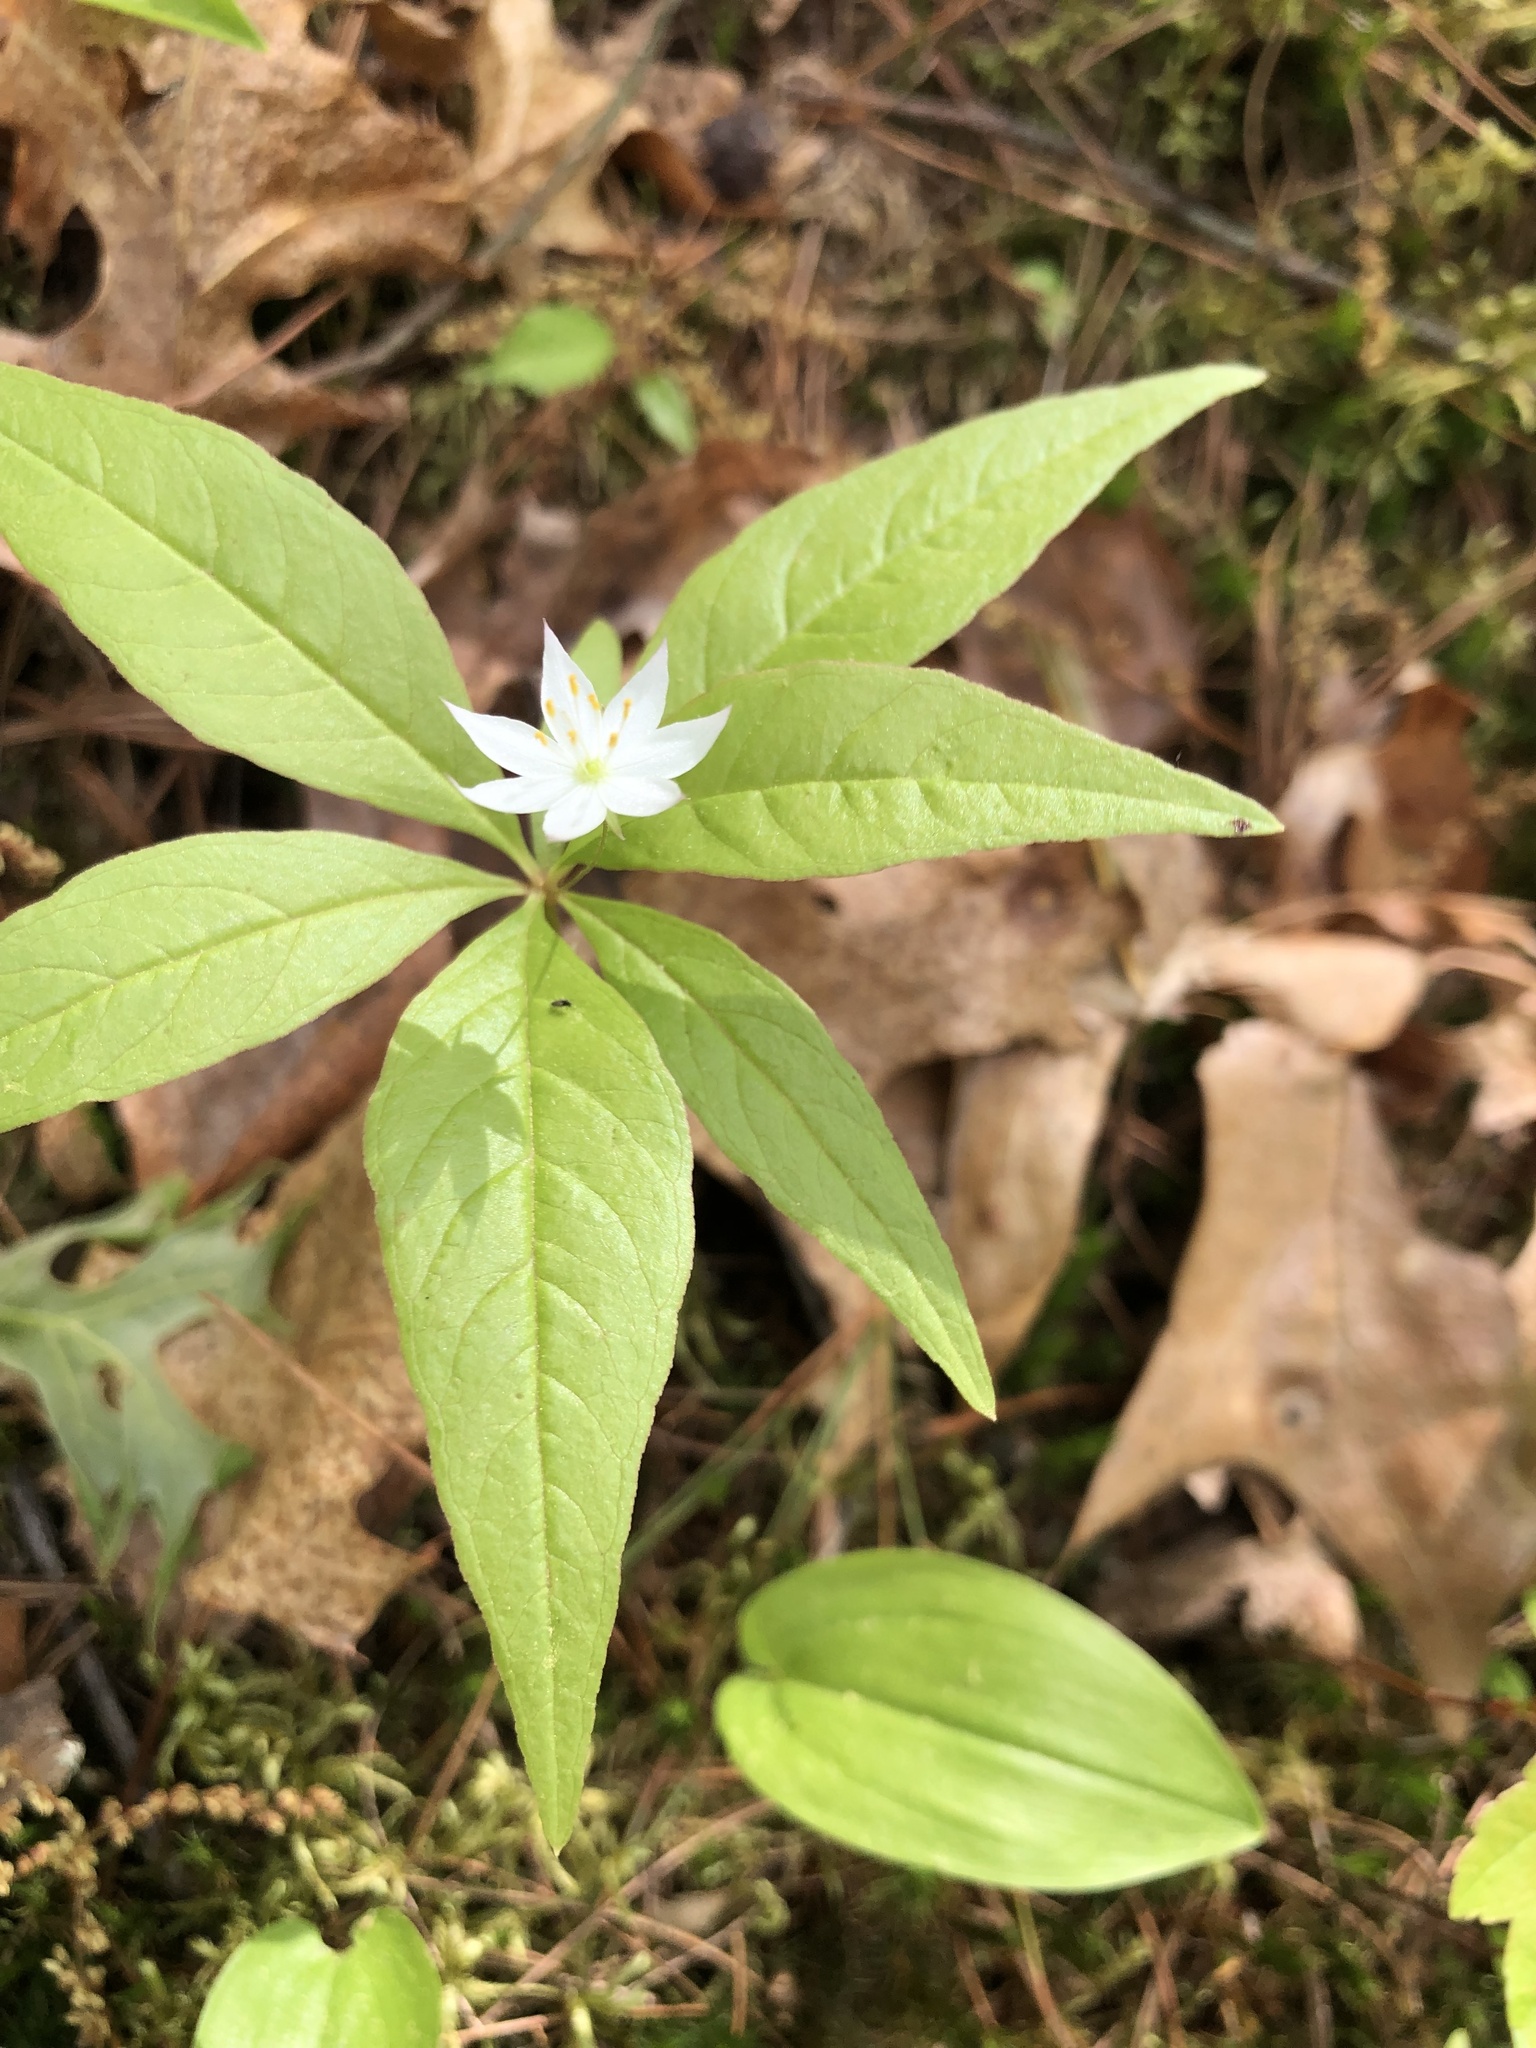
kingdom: Plantae
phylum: Tracheophyta
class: Magnoliopsida
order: Ericales
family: Primulaceae
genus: Lysimachia
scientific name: Lysimachia borealis
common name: American starflower
